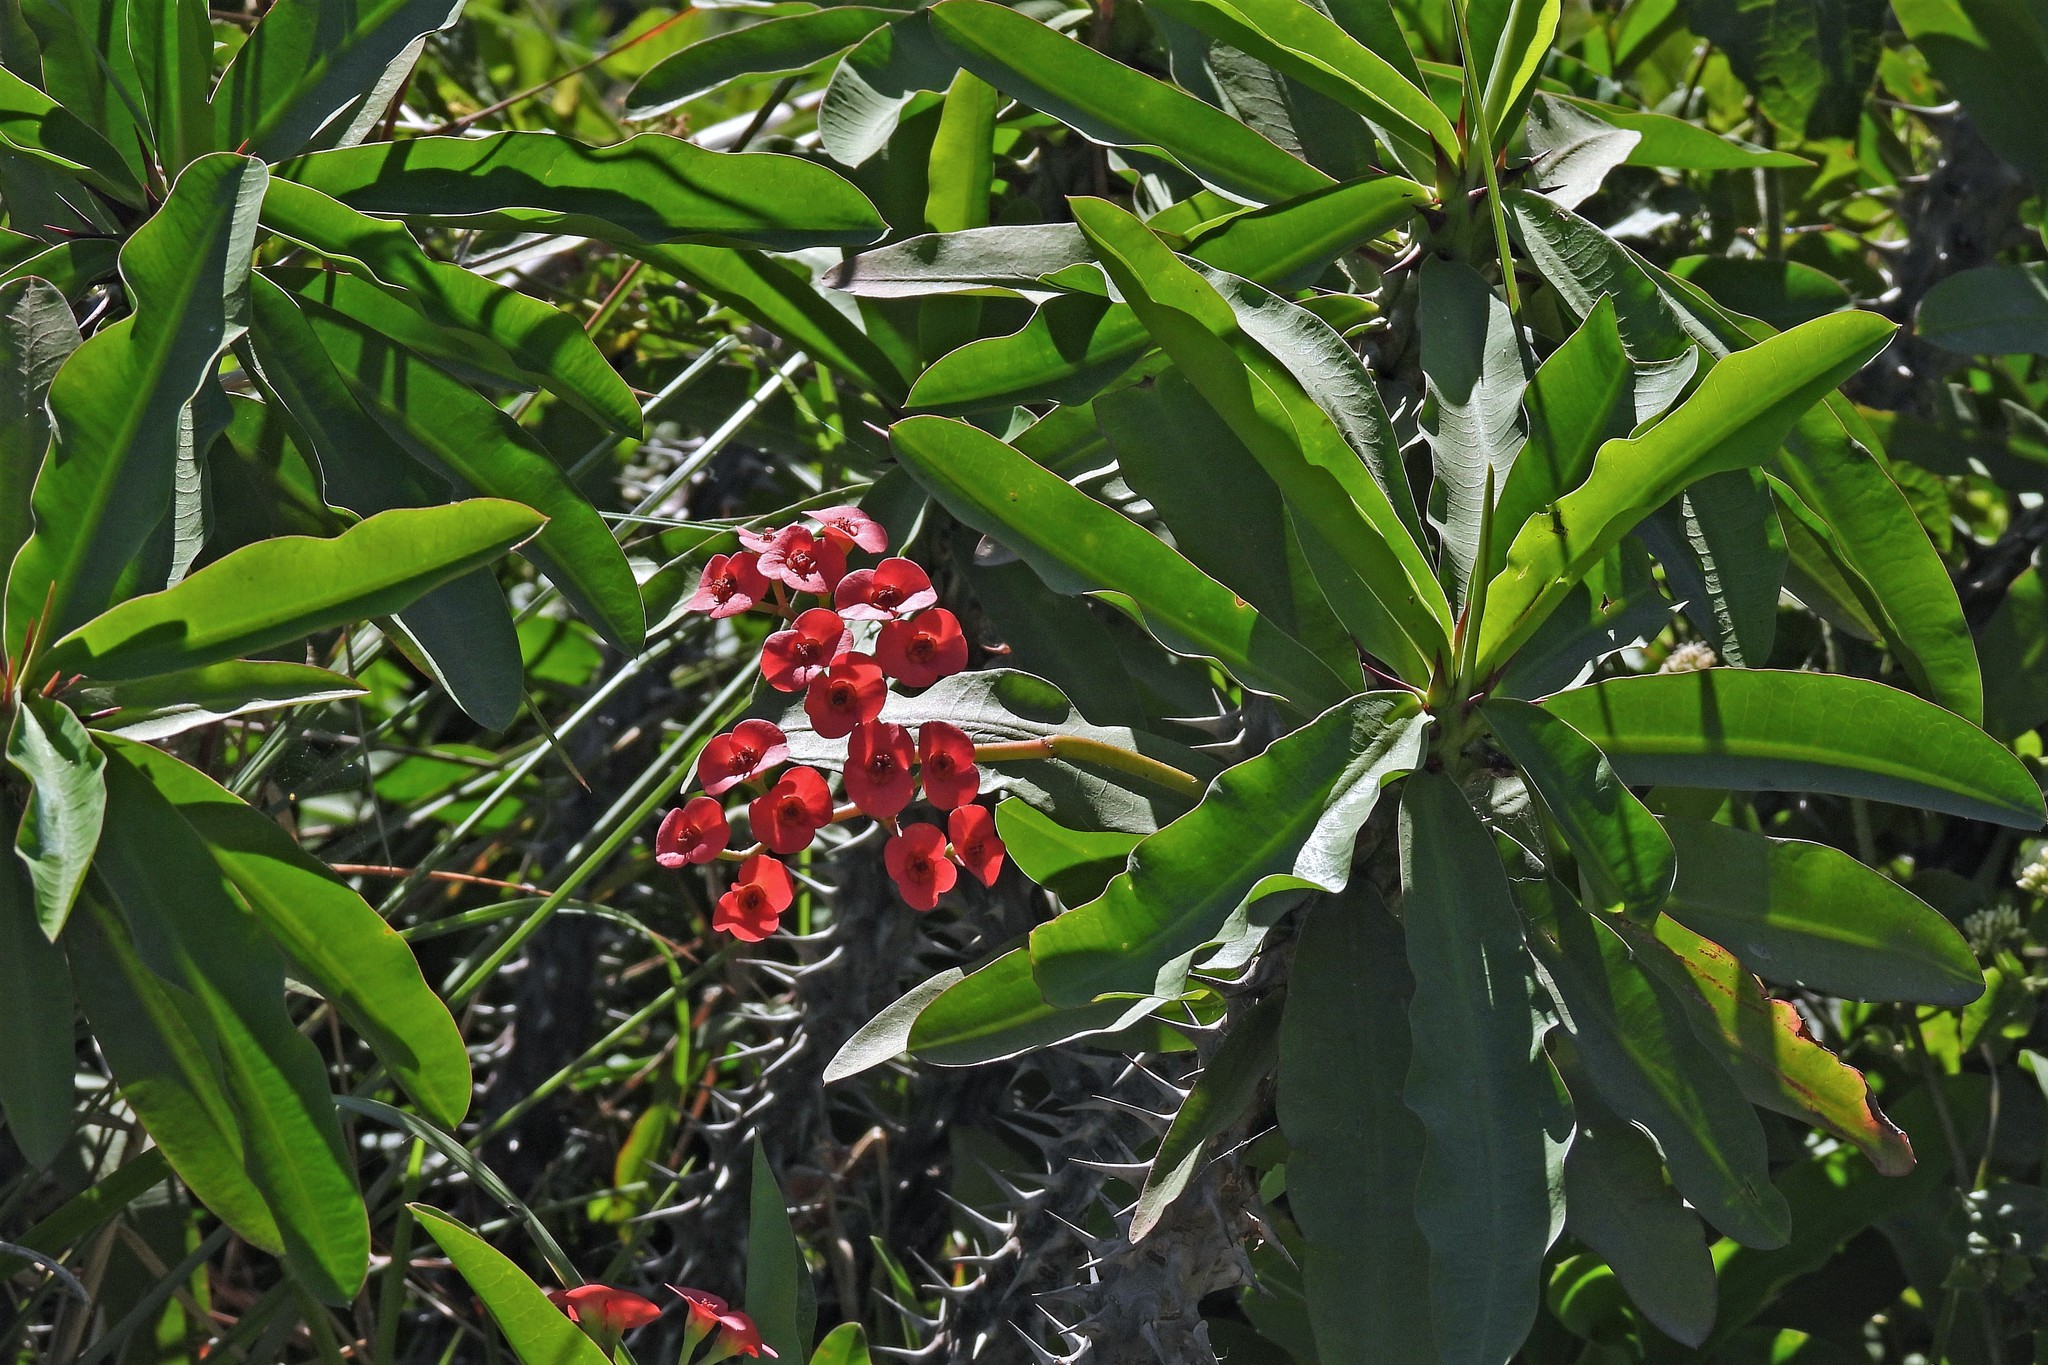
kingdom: Plantae
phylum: Tracheophyta
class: Magnoliopsida
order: Malpighiales
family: Euphorbiaceae
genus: Euphorbia
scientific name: Euphorbia milii
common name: Christplant
